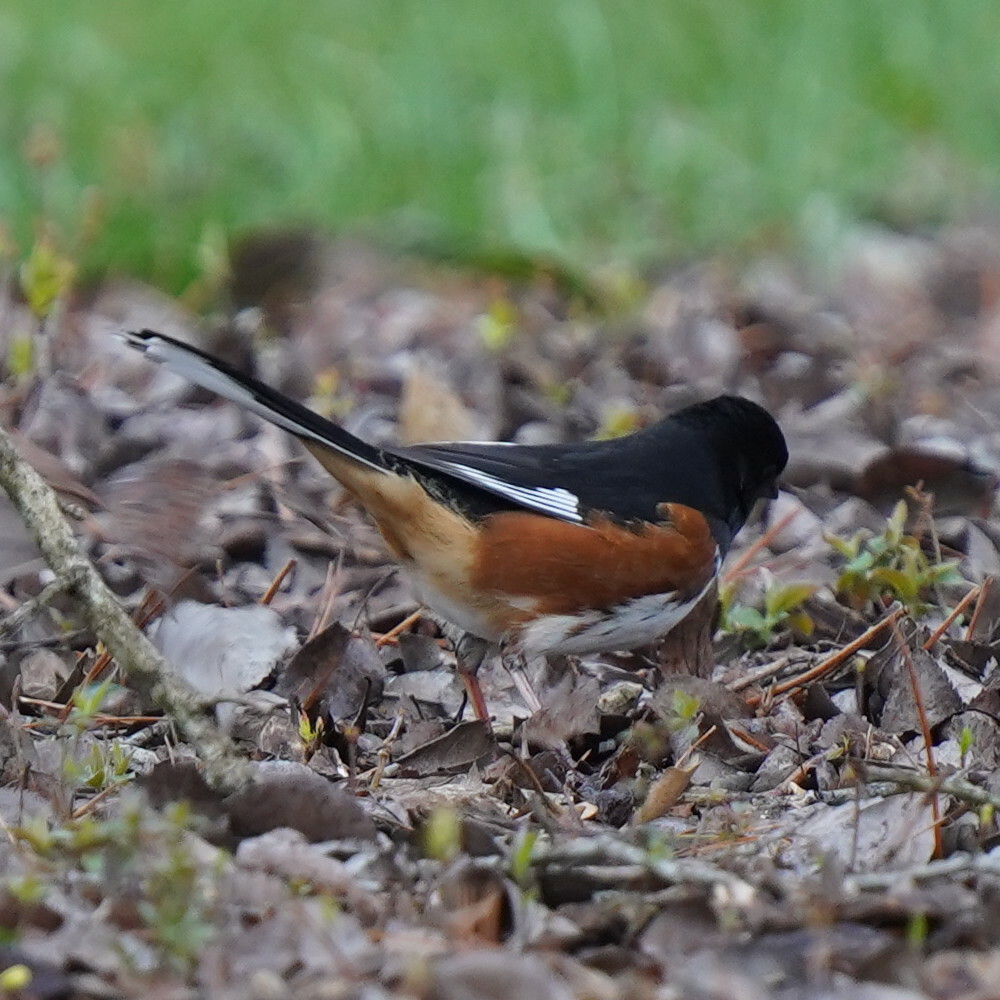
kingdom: Animalia
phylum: Chordata
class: Aves
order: Passeriformes
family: Passerellidae
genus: Pipilo
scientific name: Pipilo erythrophthalmus
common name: Eastern towhee
